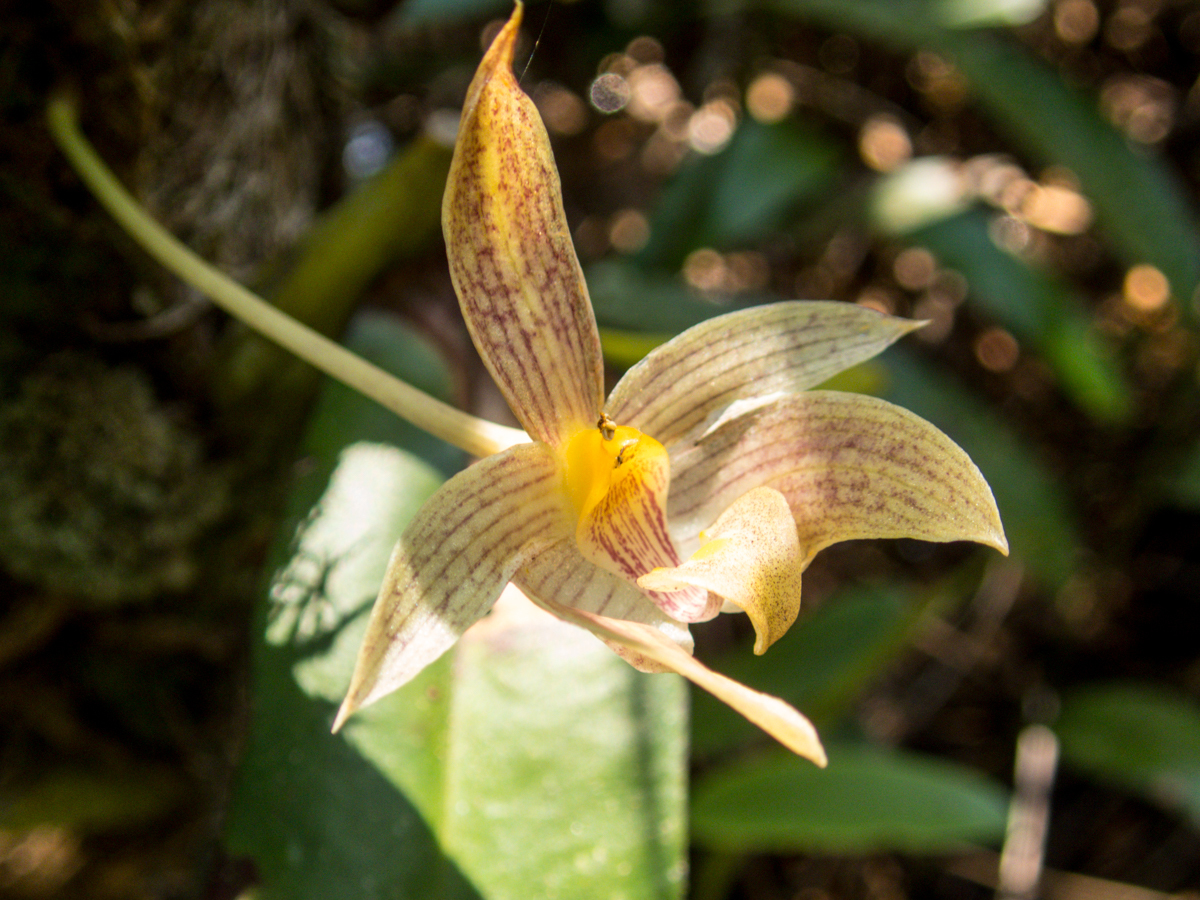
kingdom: Plantae
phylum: Tracheophyta
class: Liliopsida
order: Asparagales
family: Orchidaceae
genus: Bulbophyllum
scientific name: Bulbophyllum orectopetalum
